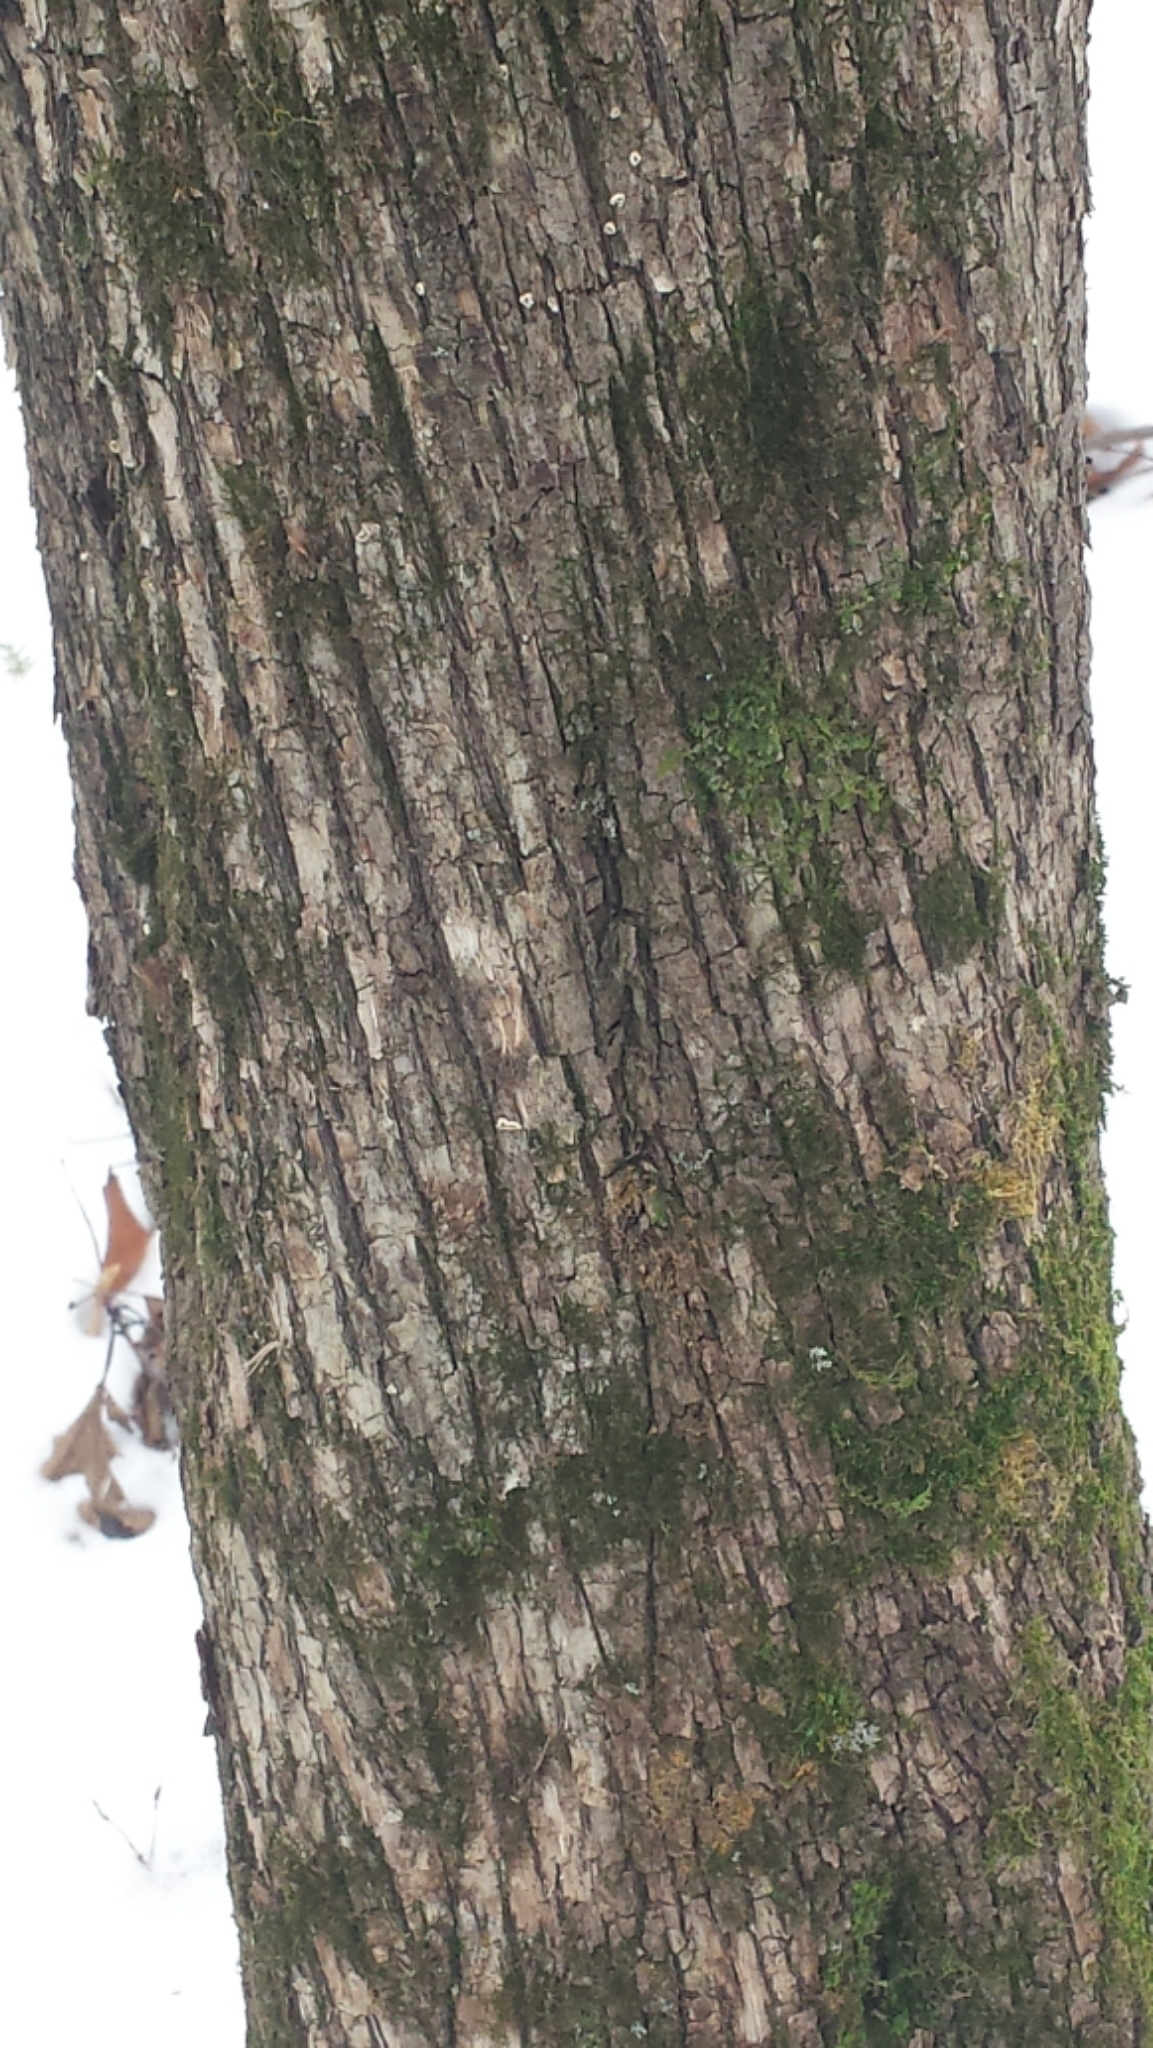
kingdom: Plantae
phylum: Tracheophyta
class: Magnoliopsida
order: Fagales
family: Betulaceae
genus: Ostrya
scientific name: Ostrya virginiana
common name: Ironwood
